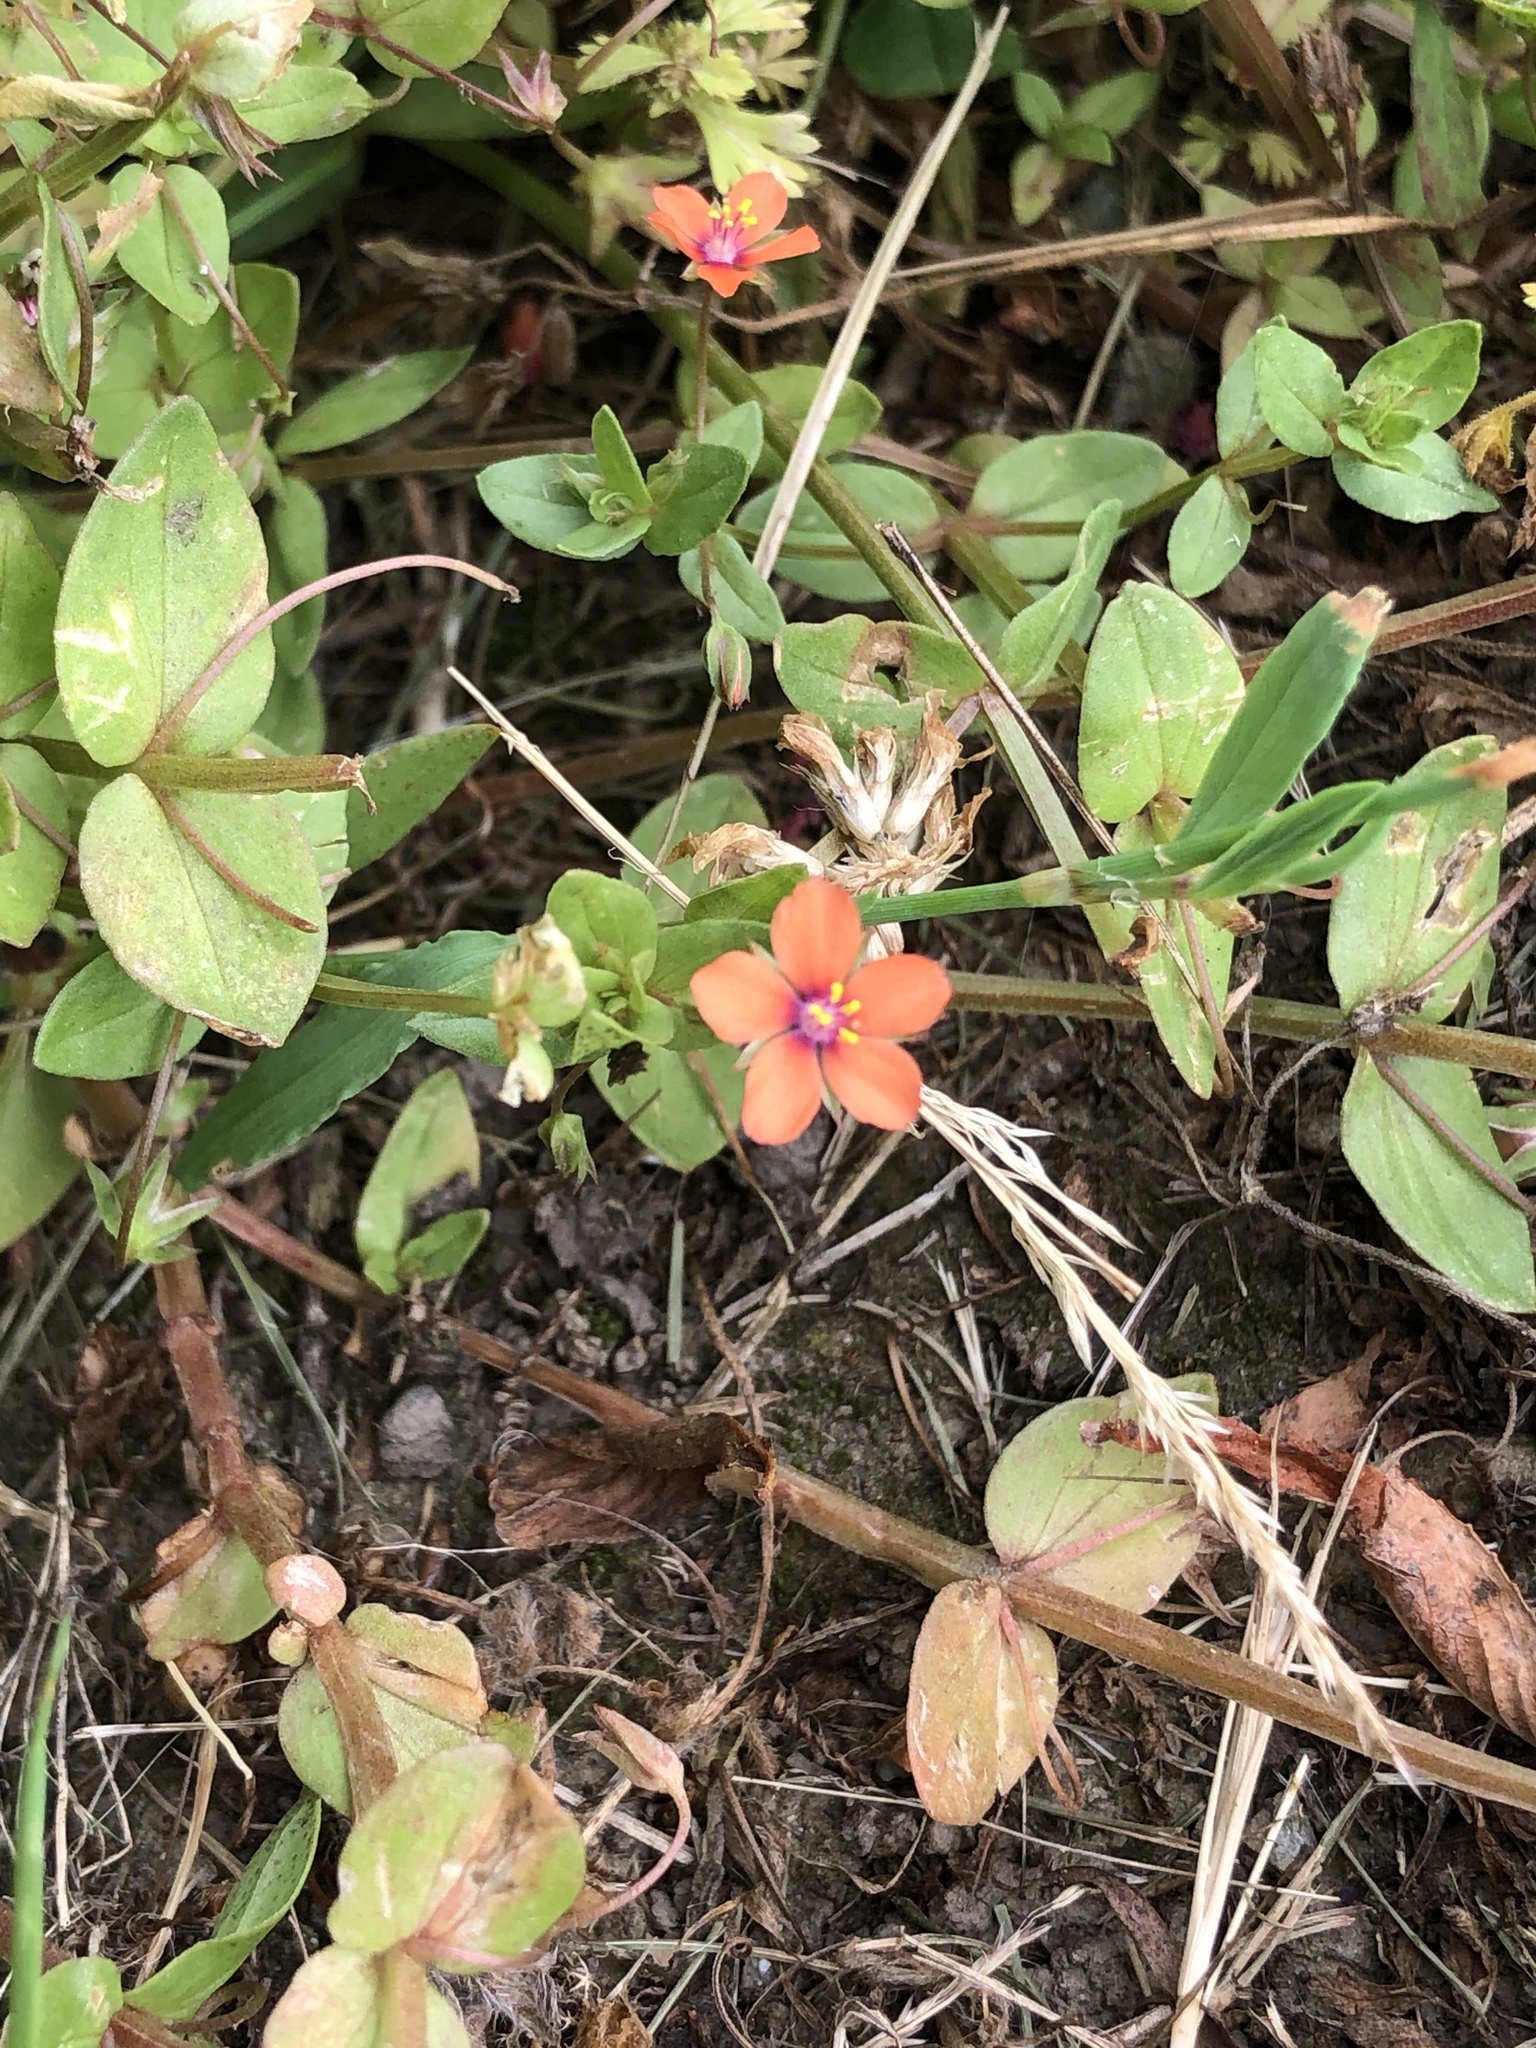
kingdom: Plantae
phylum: Tracheophyta
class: Magnoliopsida
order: Ericales
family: Primulaceae
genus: Lysimachia
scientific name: Lysimachia arvensis
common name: Scarlet pimpernel
